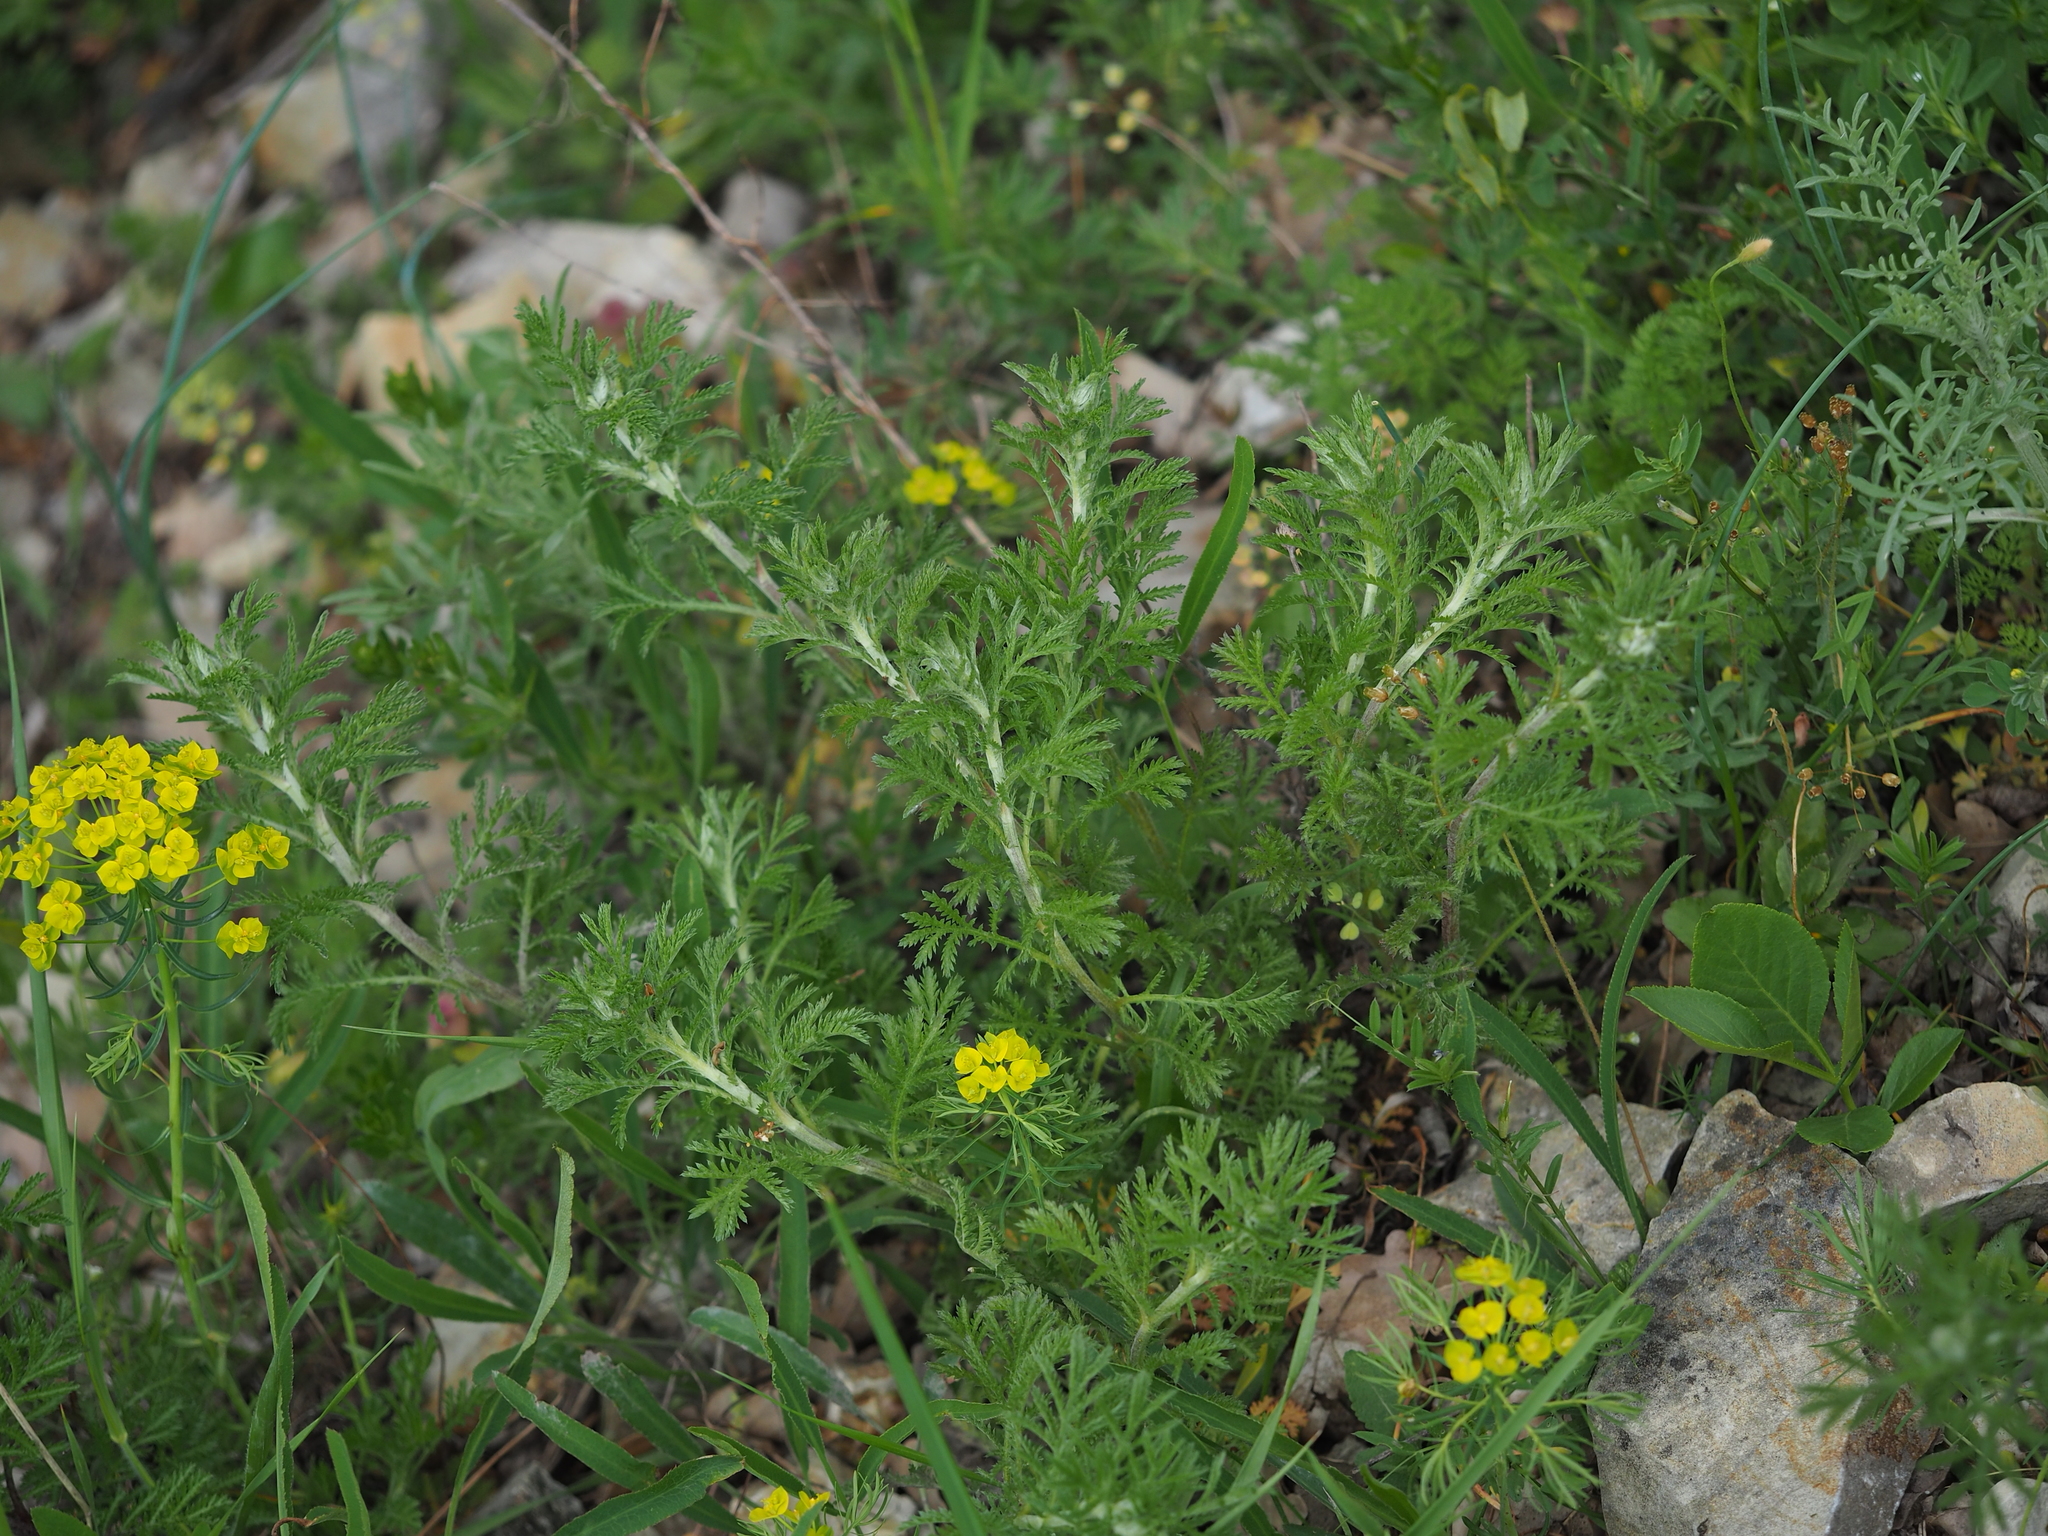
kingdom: Plantae
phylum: Tracheophyta
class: Magnoliopsida
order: Asterales
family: Asteraceae
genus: Cota
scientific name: Cota tinctoria
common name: Golden chamomile
